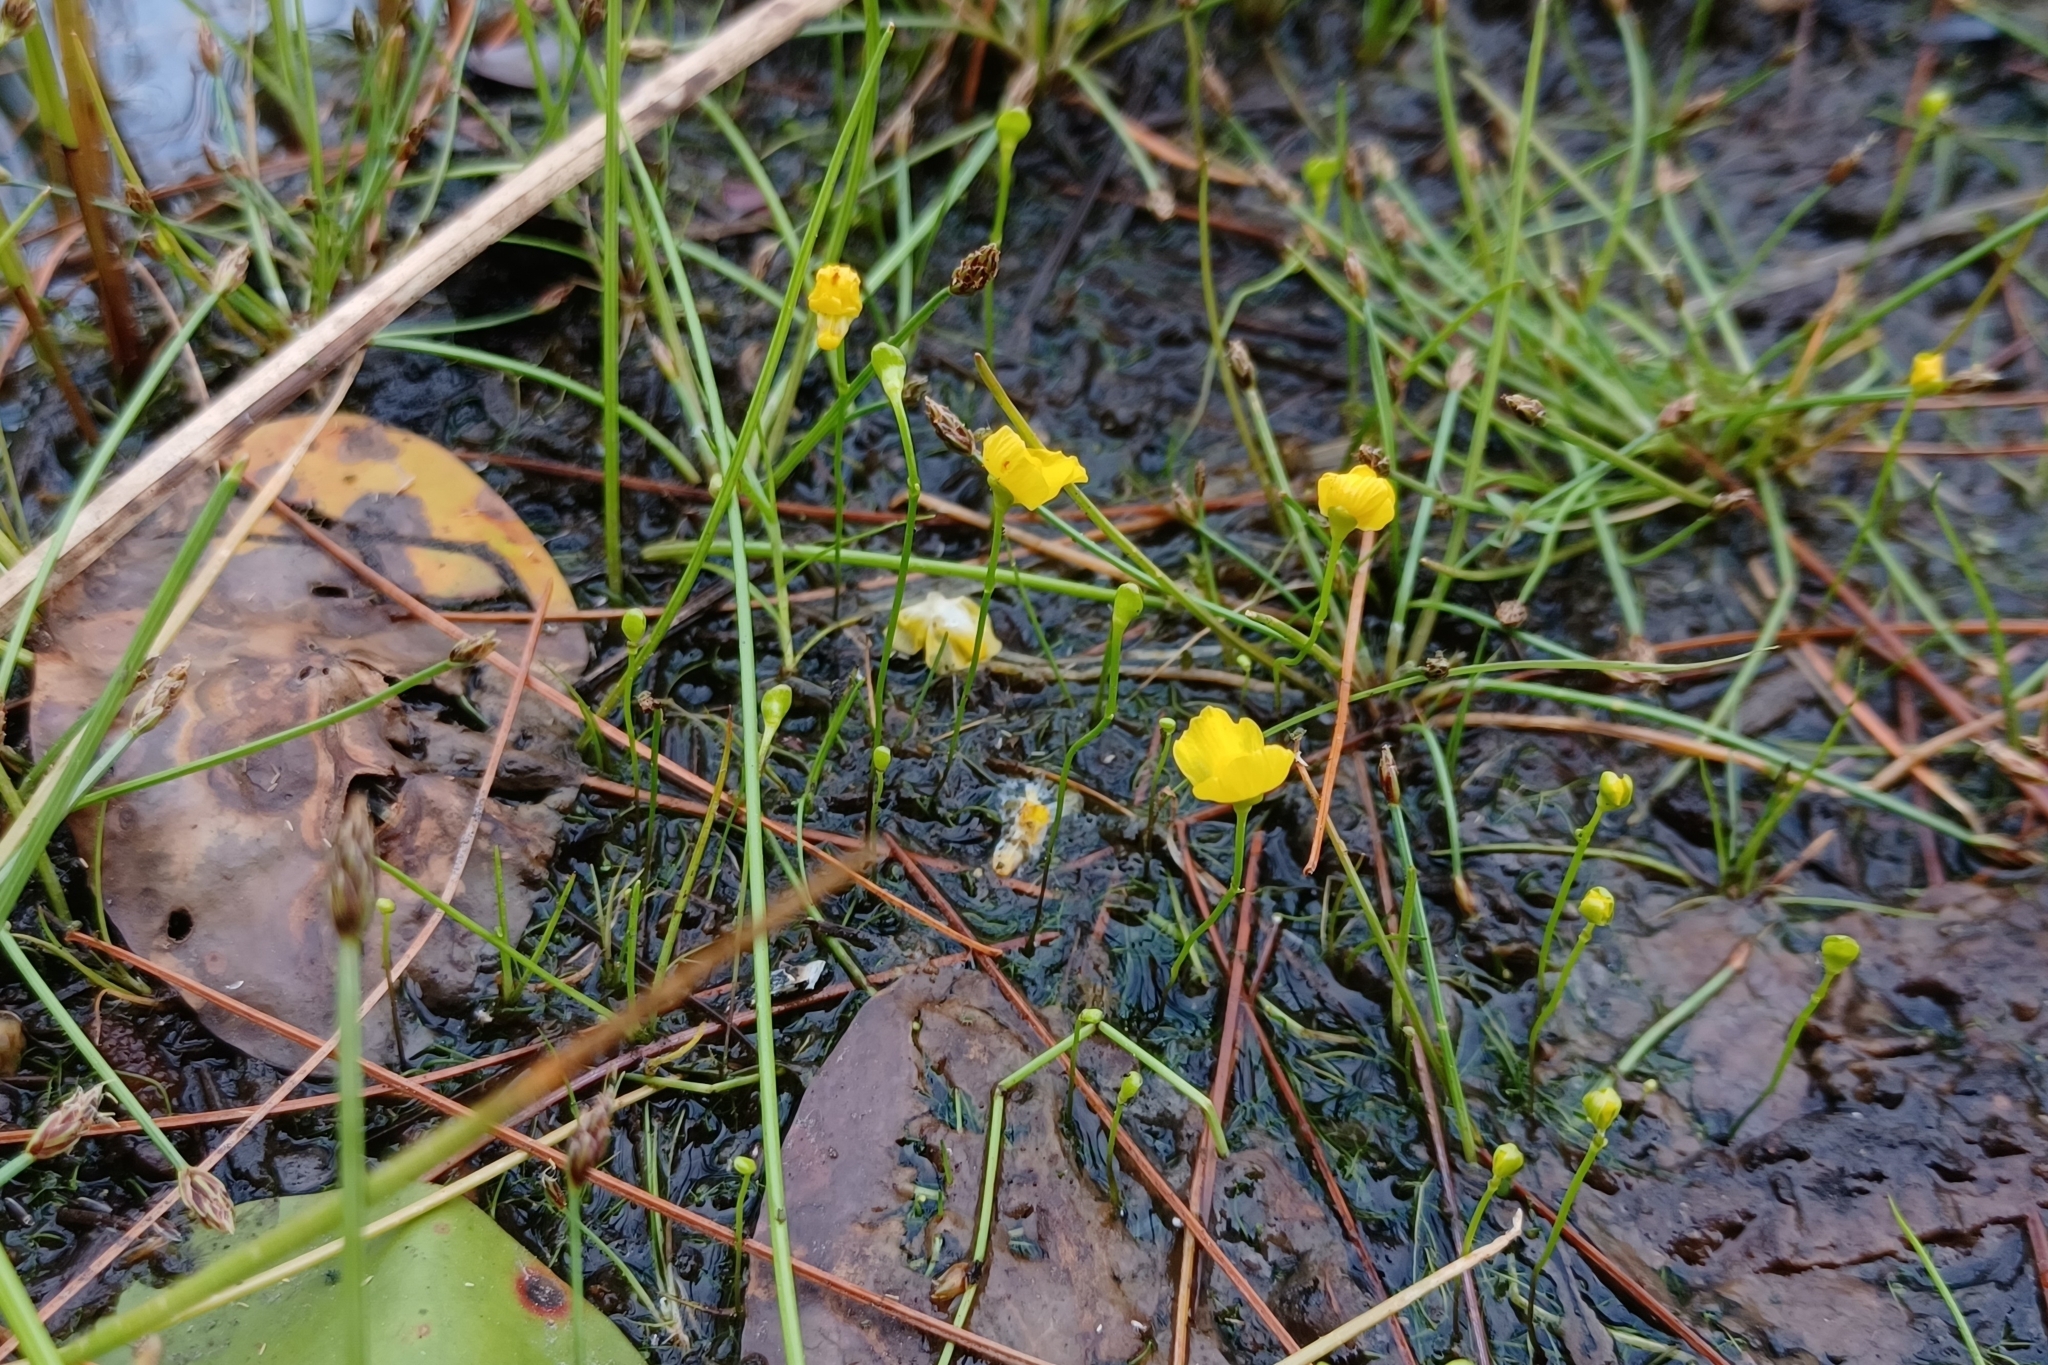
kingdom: Plantae
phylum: Tracheophyta
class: Magnoliopsida
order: Lamiales
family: Lentibulariaceae
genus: Utricularia
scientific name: Utricularia gibba
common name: Humped bladderwort
